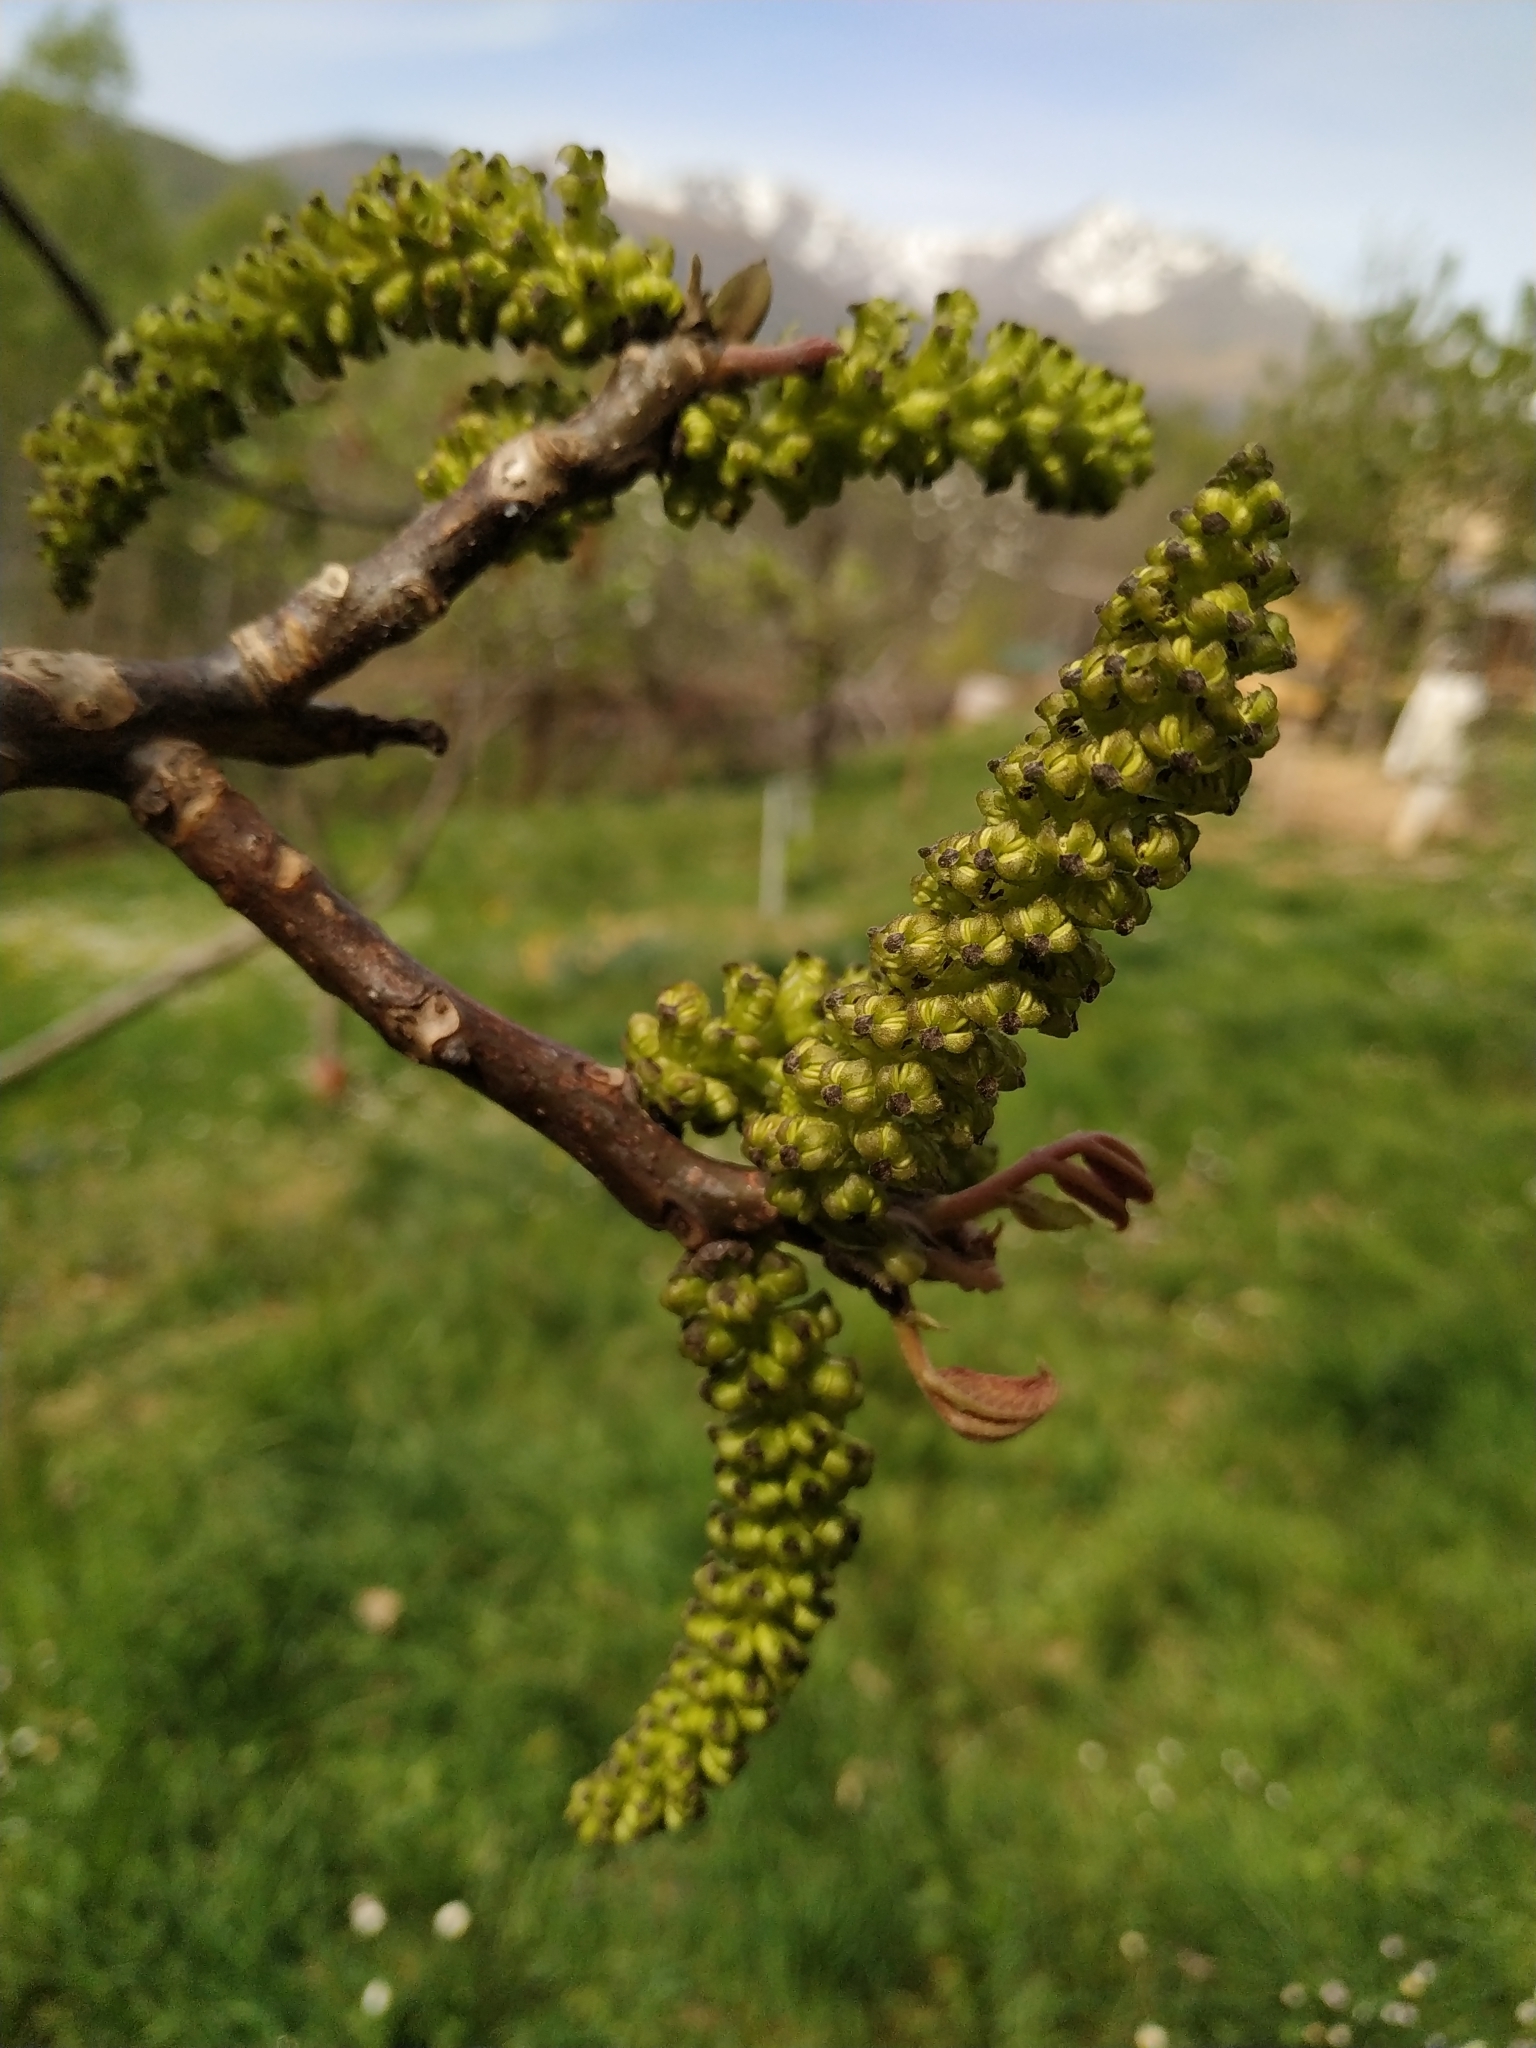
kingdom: Plantae
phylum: Tracheophyta
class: Magnoliopsida
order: Fagales
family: Juglandaceae
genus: Juglans
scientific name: Juglans nigra
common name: Black walnut
